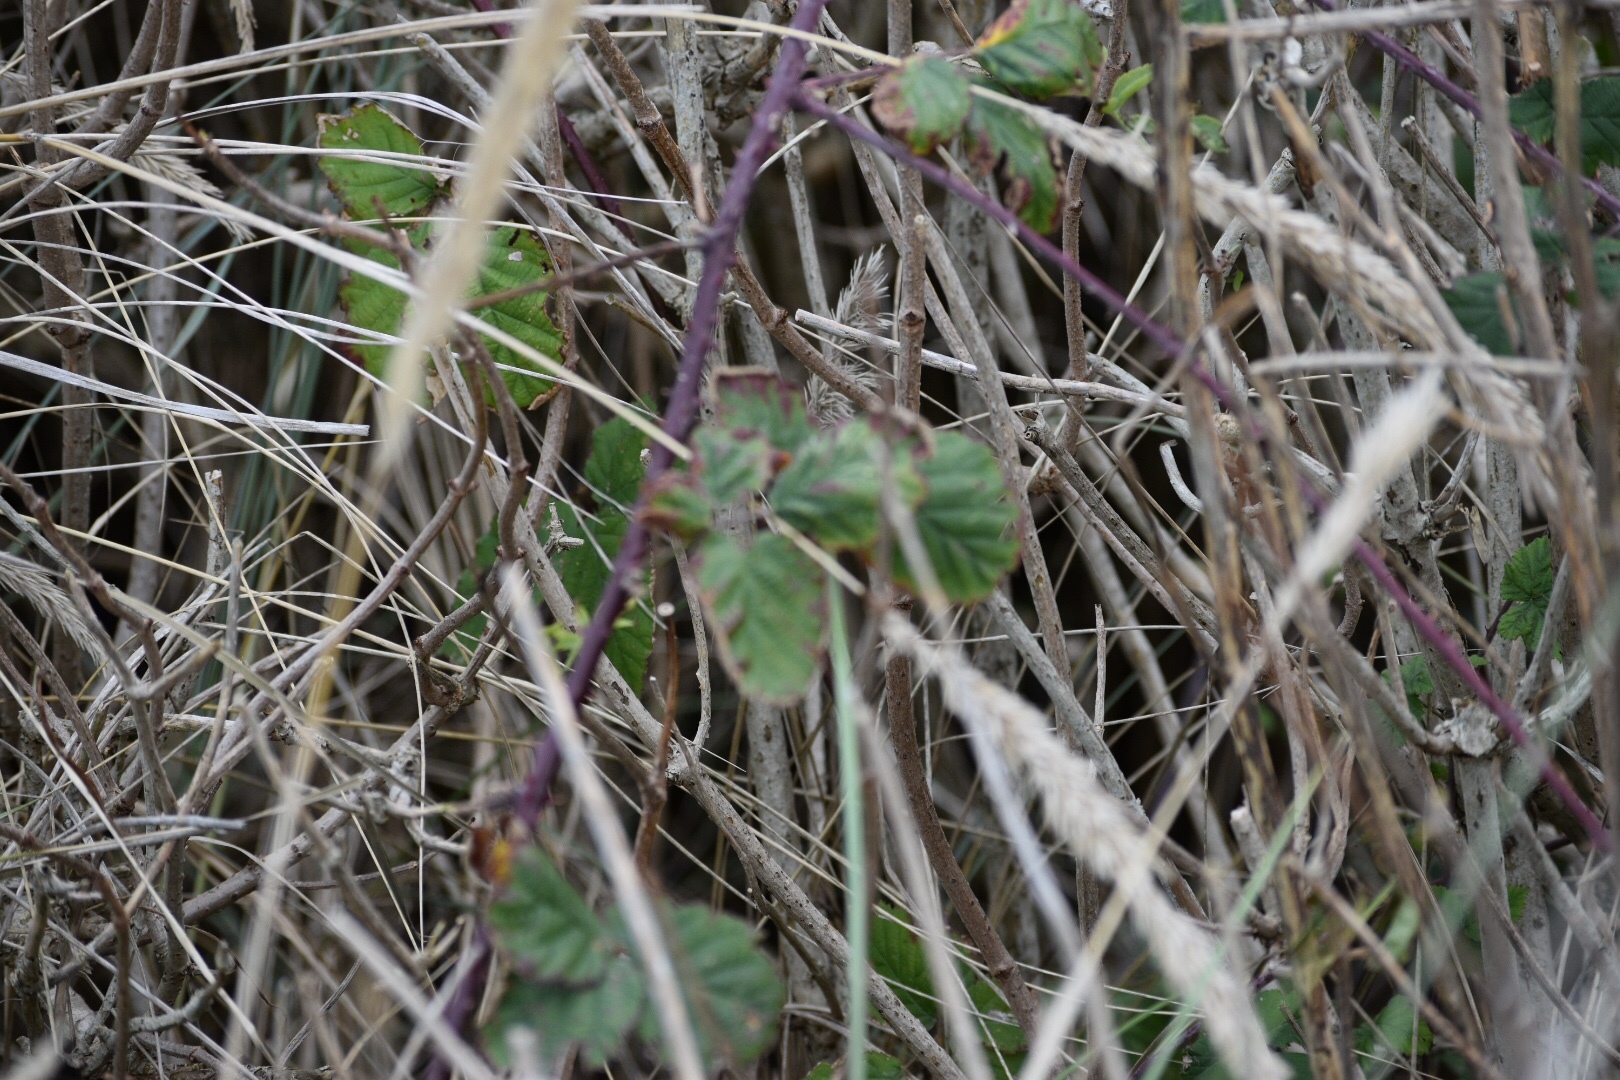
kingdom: Plantae
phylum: Tracheophyta
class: Magnoliopsida
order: Rosales
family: Rosaceae
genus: Rubus
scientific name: Rubus
